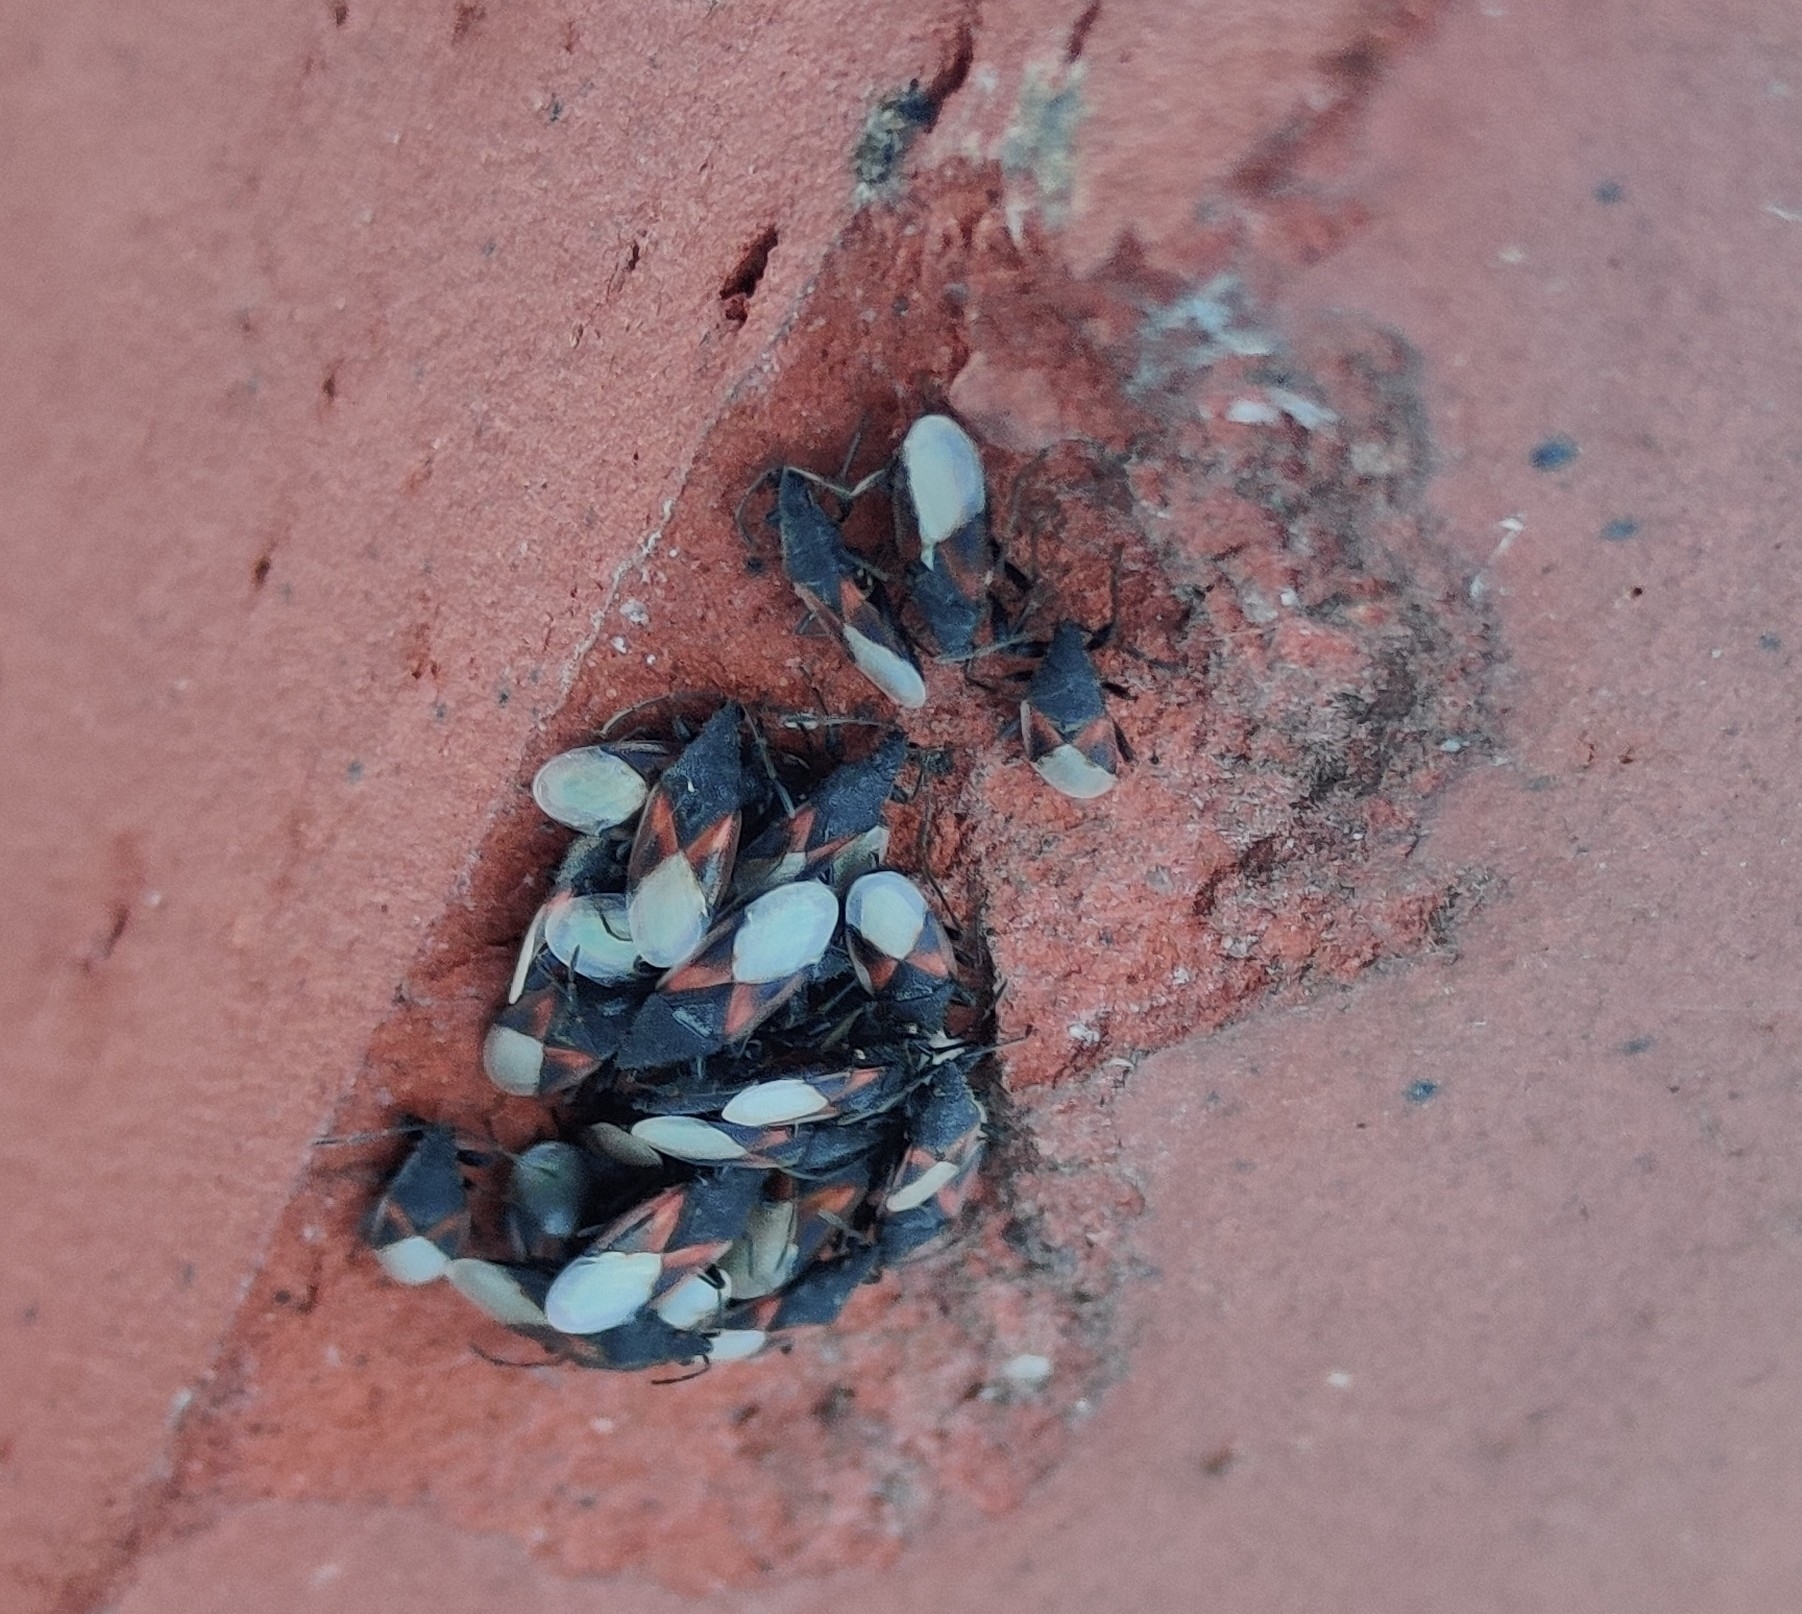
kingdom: Animalia
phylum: Arthropoda
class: Insecta
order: Hemiptera
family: Oxycarenidae
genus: Oxycarenus
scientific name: Oxycarenus lavaterae
